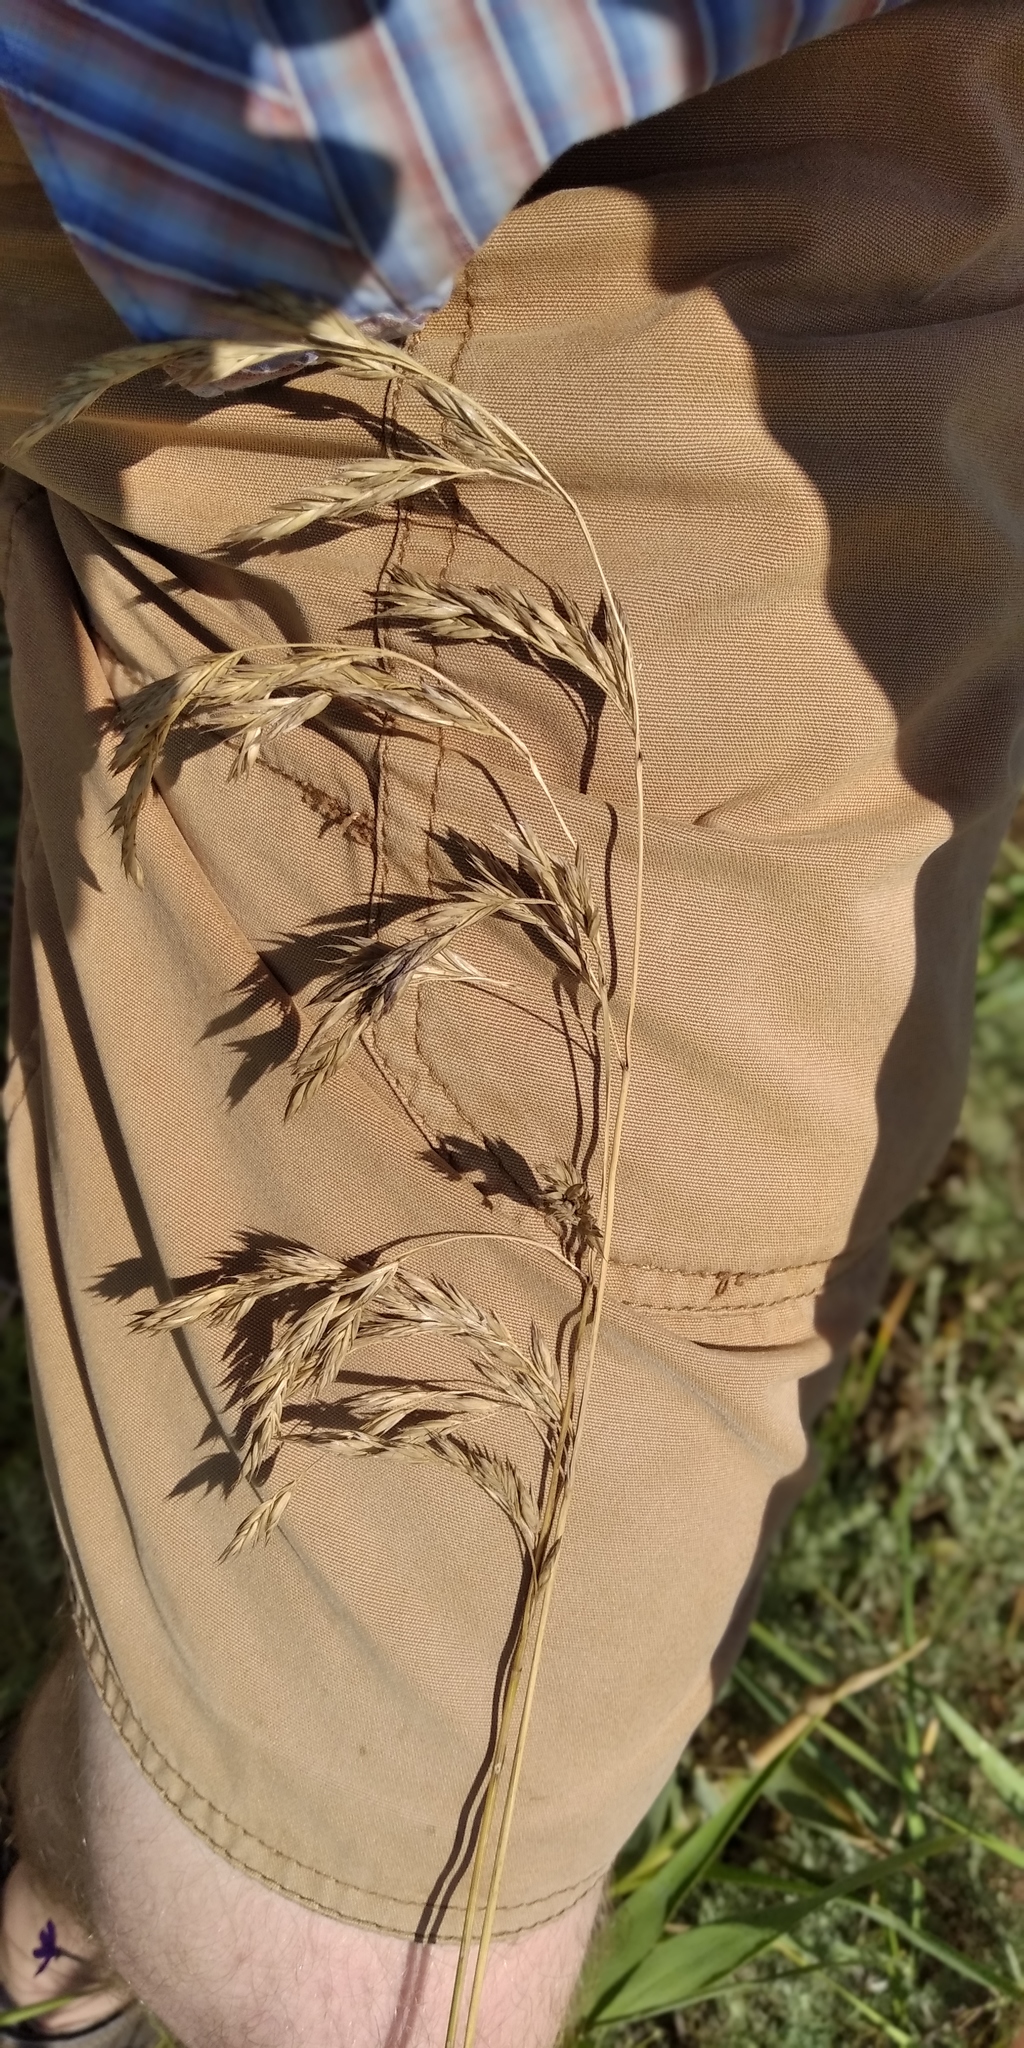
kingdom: Plantae
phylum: Tracheophyta
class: Liliopsida
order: Poales
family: Poaceae
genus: Lolium
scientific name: Lolium arundinaceum
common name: Reed fescue
